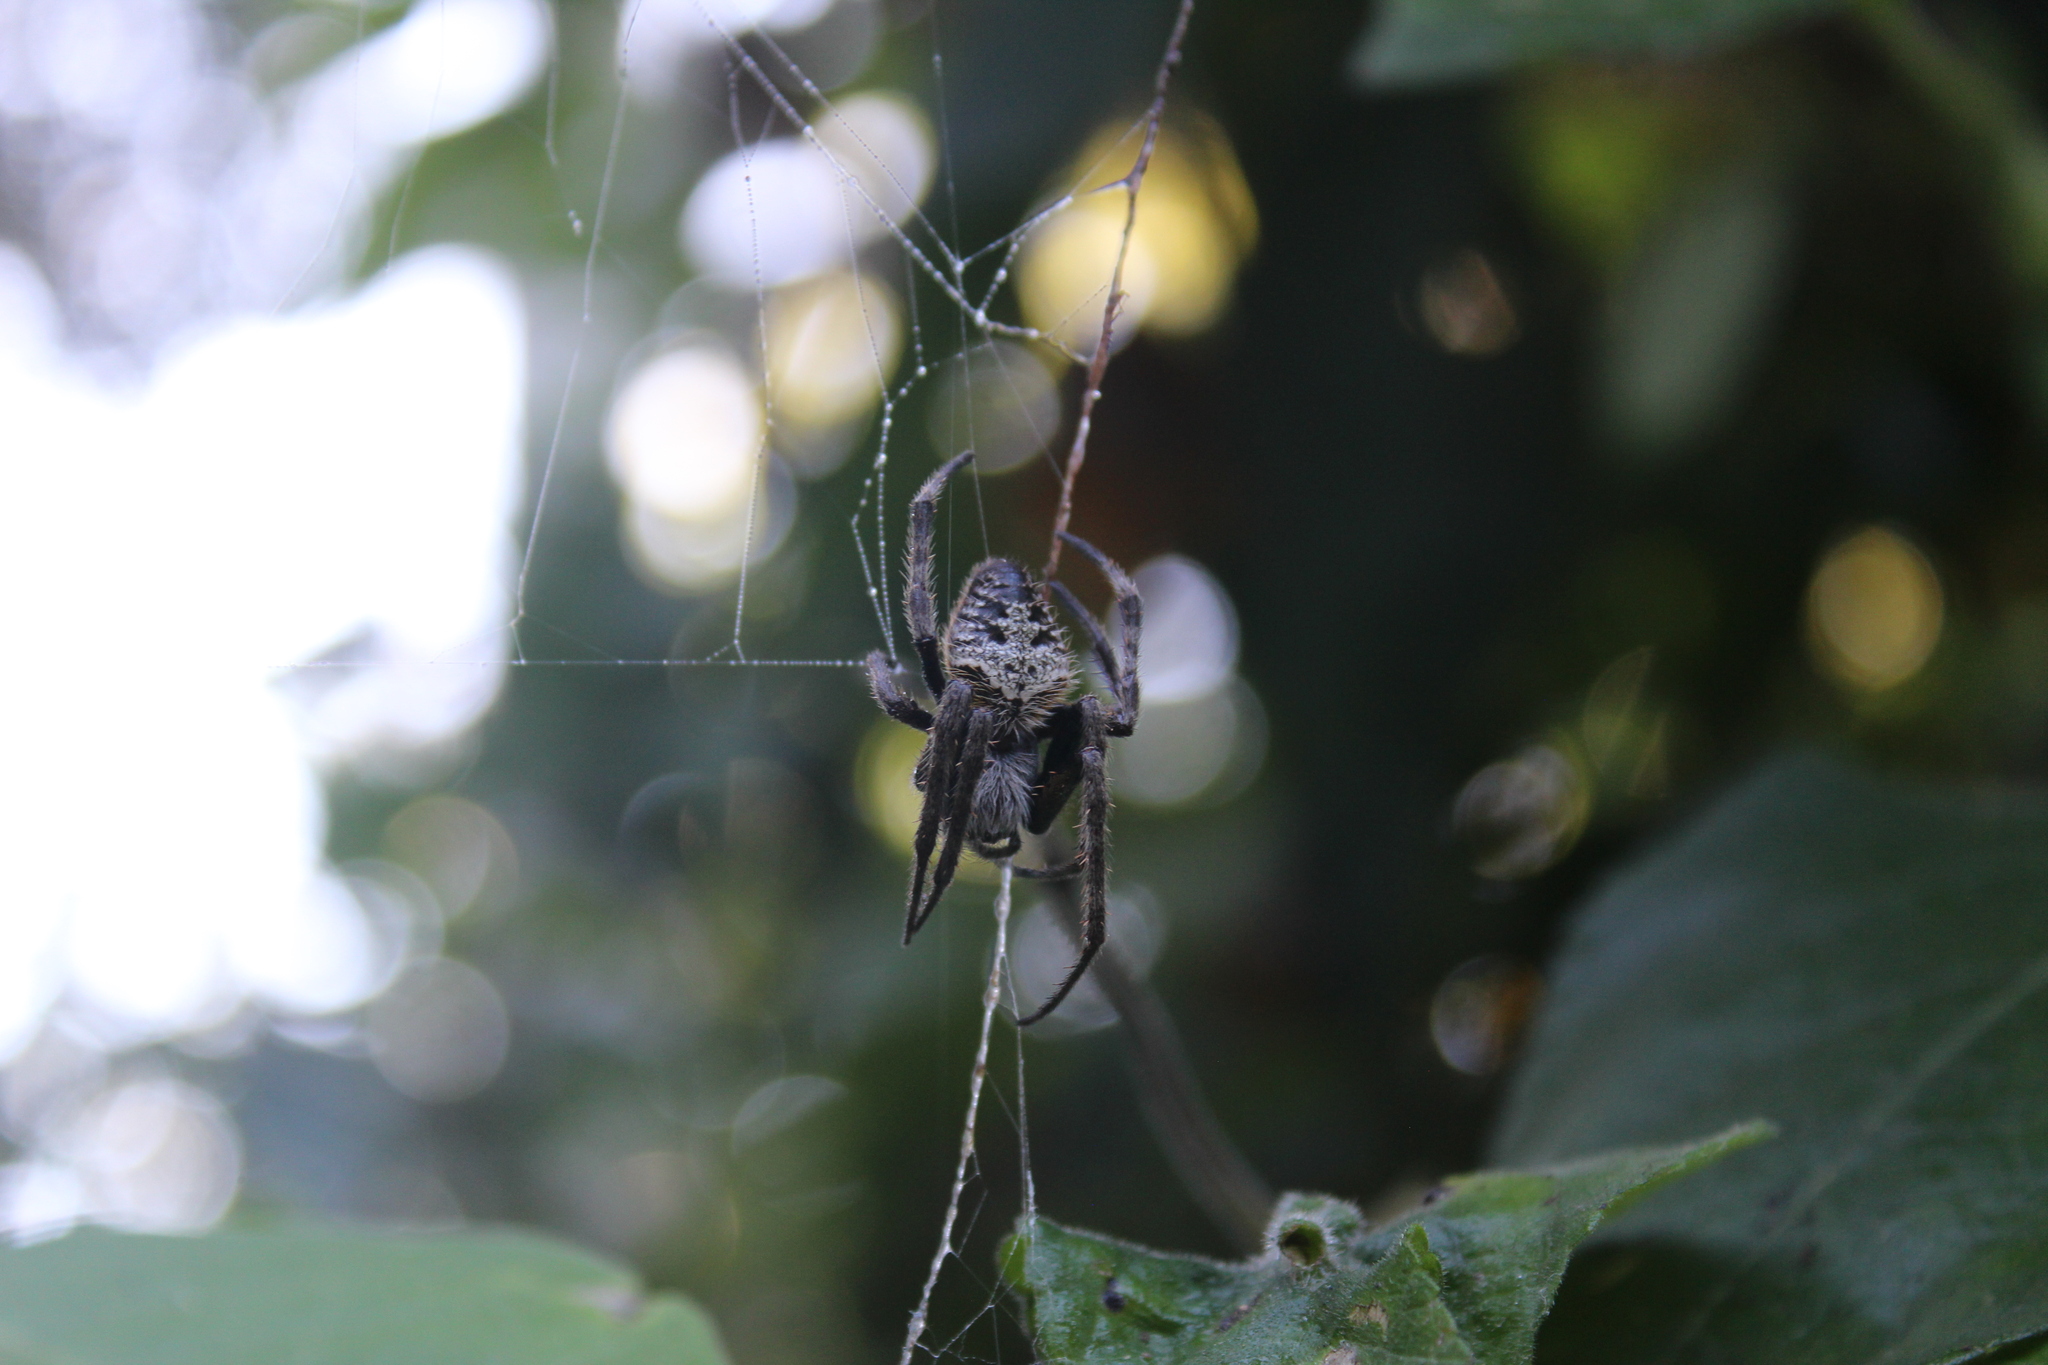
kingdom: Animalia
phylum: Arthropoda
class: Arachnida
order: Araneae
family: Araneidae
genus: Eriophora
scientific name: Eriophora ravilla
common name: Orb weavers
